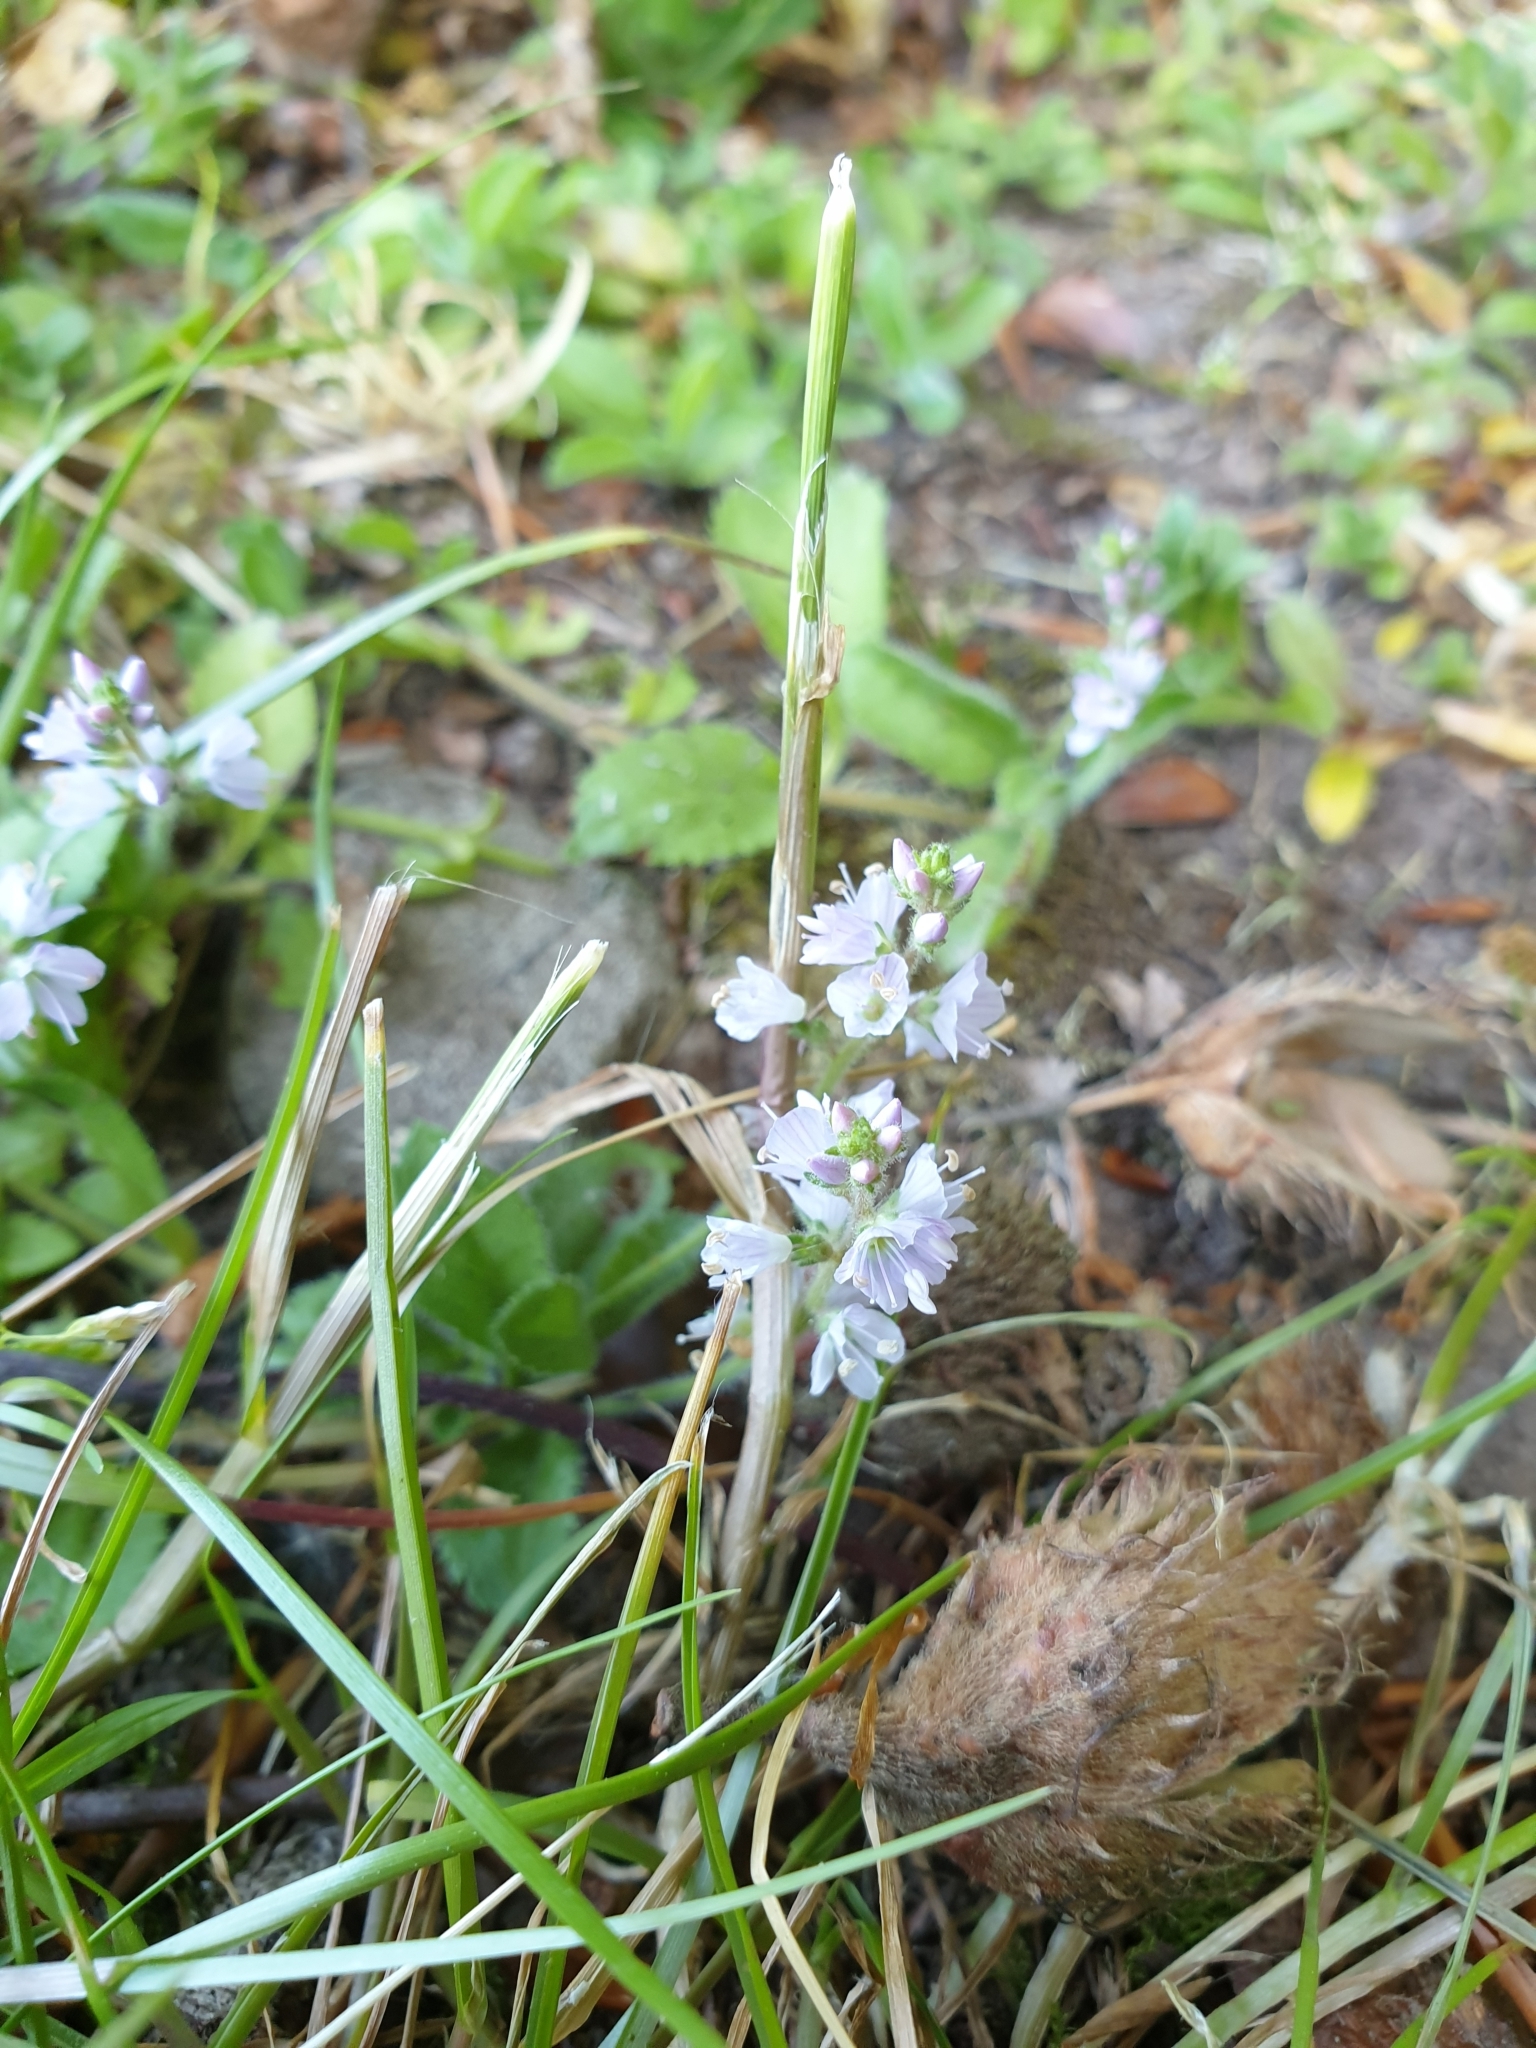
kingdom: Plantae
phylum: Tracheophyta
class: Magnoliopsida
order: Lamiales
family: Plantaginaceae
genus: Veronica
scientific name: Veronica officinalis
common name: Common speedwell
